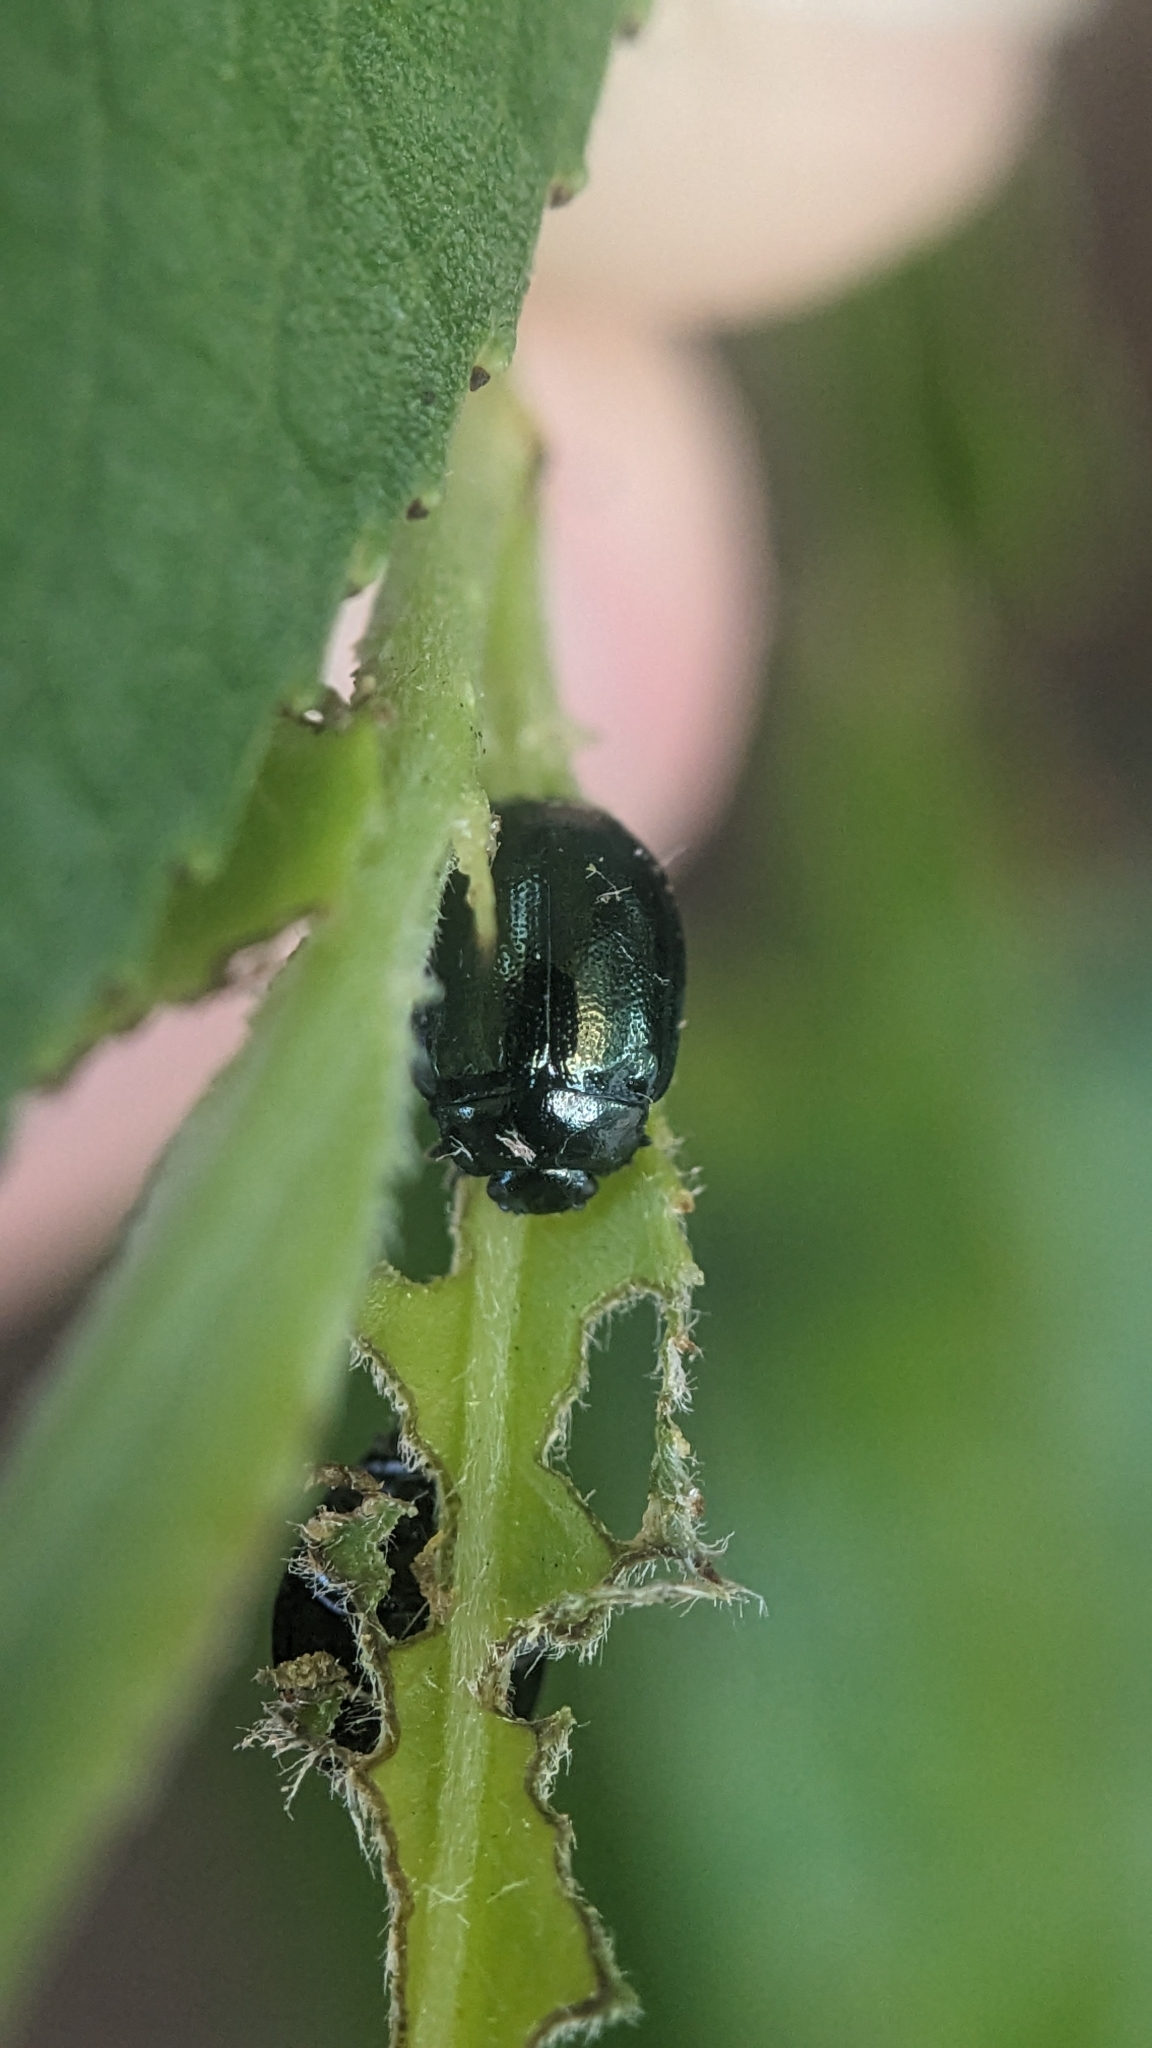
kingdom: Animalia
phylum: Arthropoda
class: Insecta
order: Coleoptera
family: Chrysomelidae
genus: Plagiodera
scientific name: Plagiodera versicolora
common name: Imported willow leaf beetle
